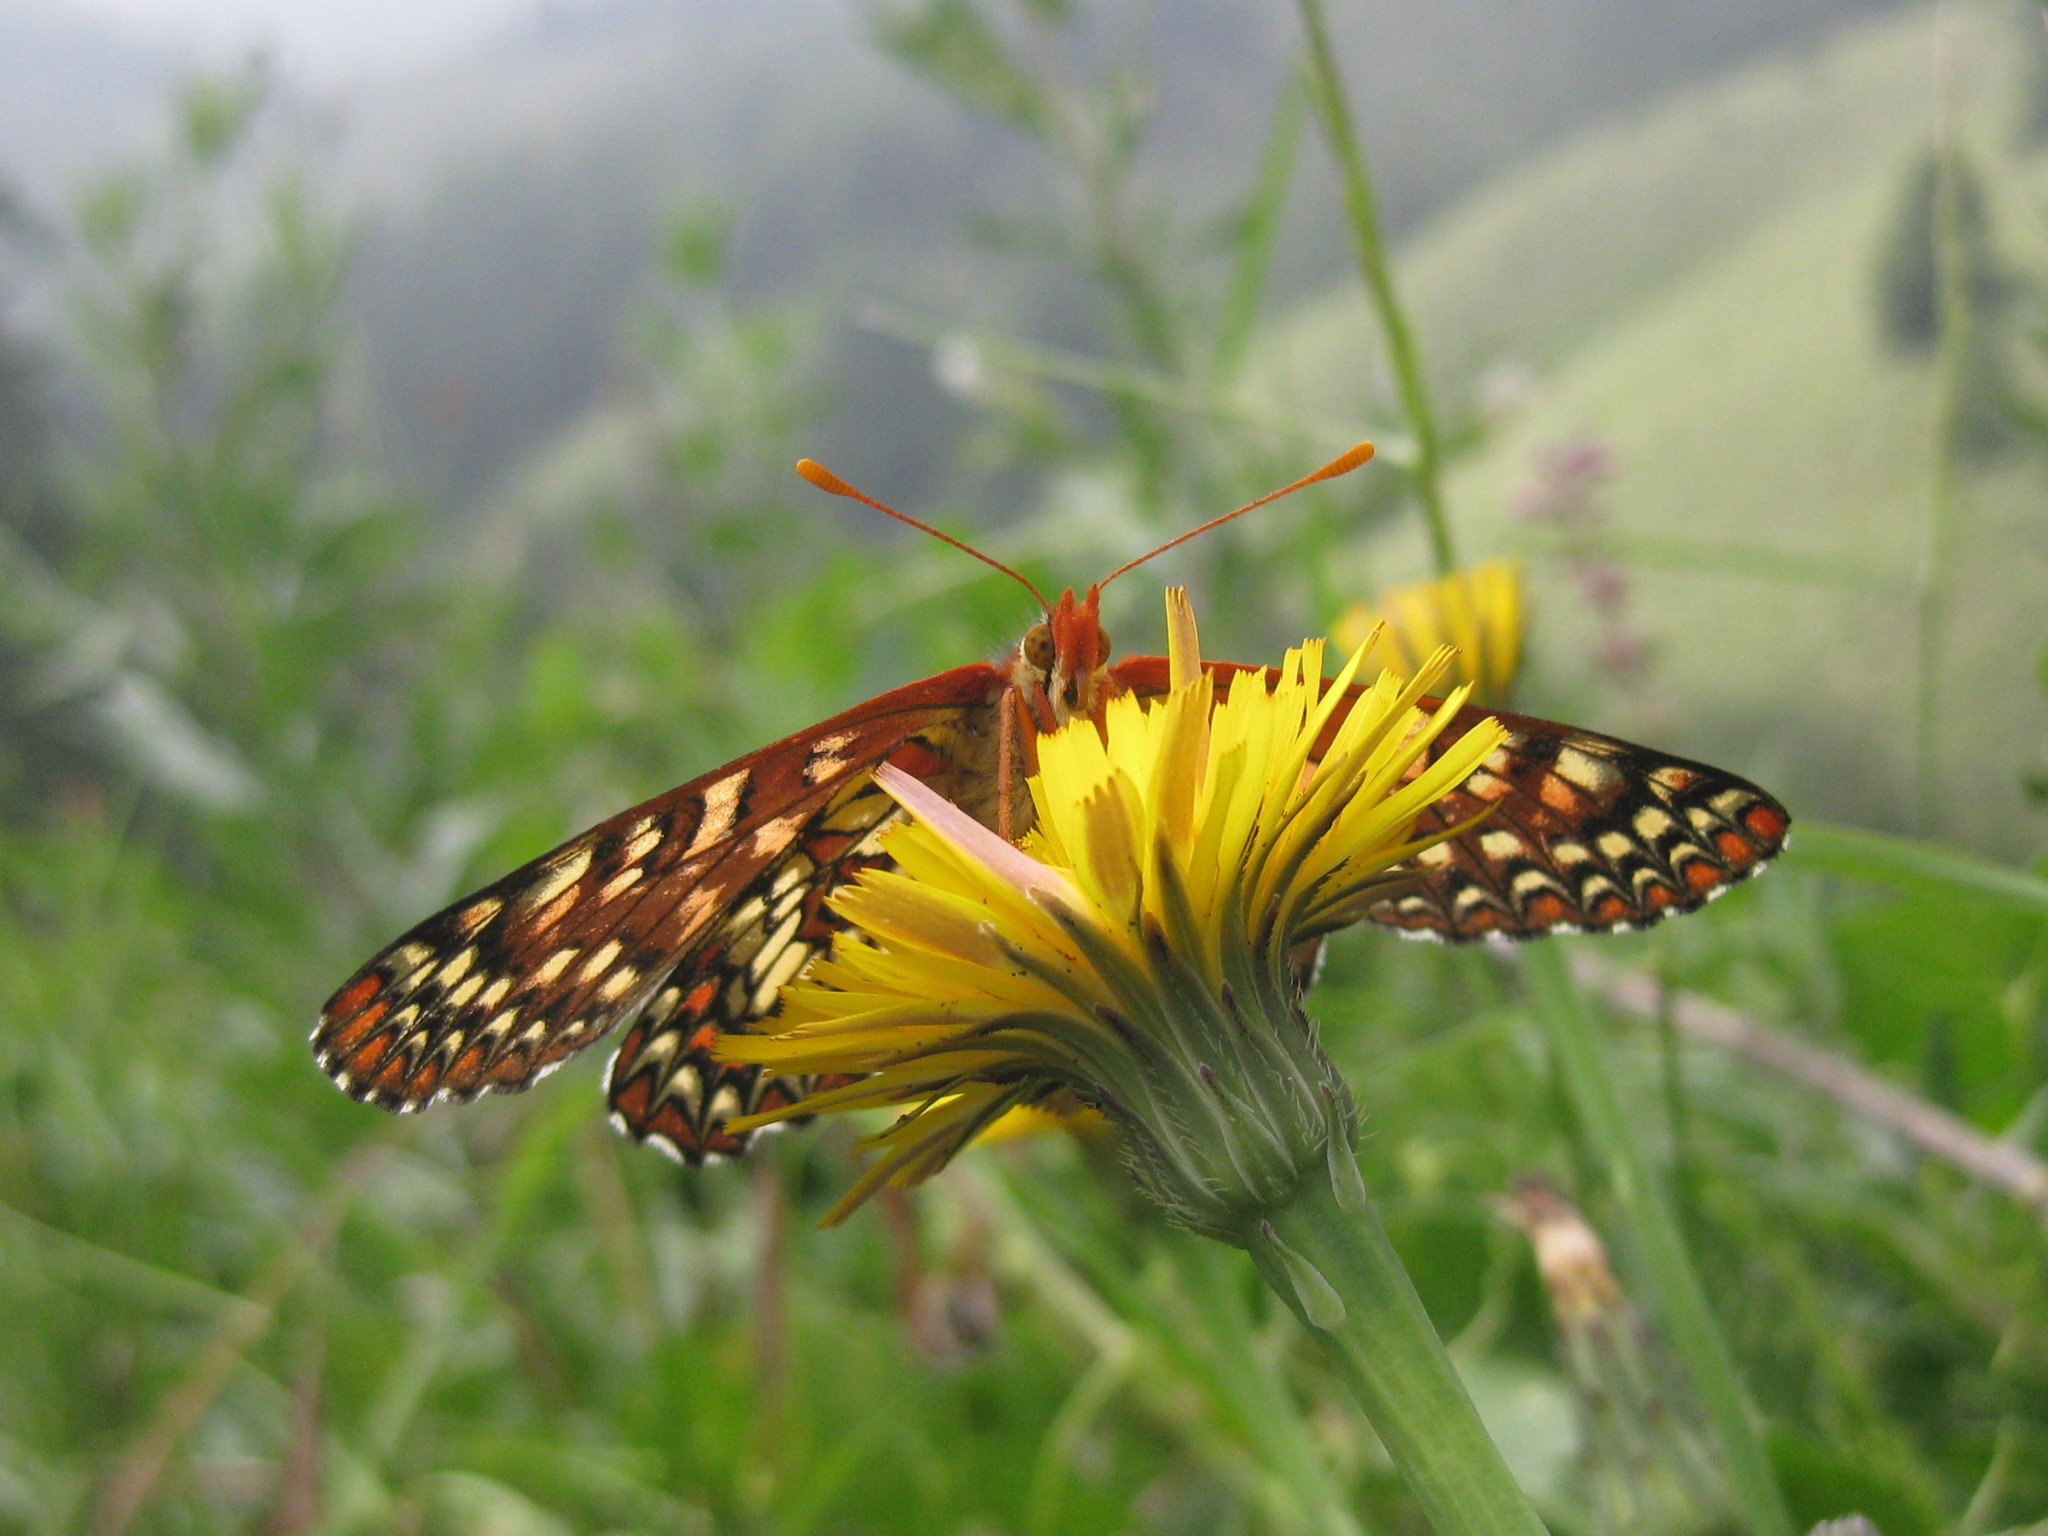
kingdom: Animalia
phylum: Arthropoda
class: Insecta
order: Lepidoptera
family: Nymphalidae
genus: Occidryas
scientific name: Occidryas chalcedona
